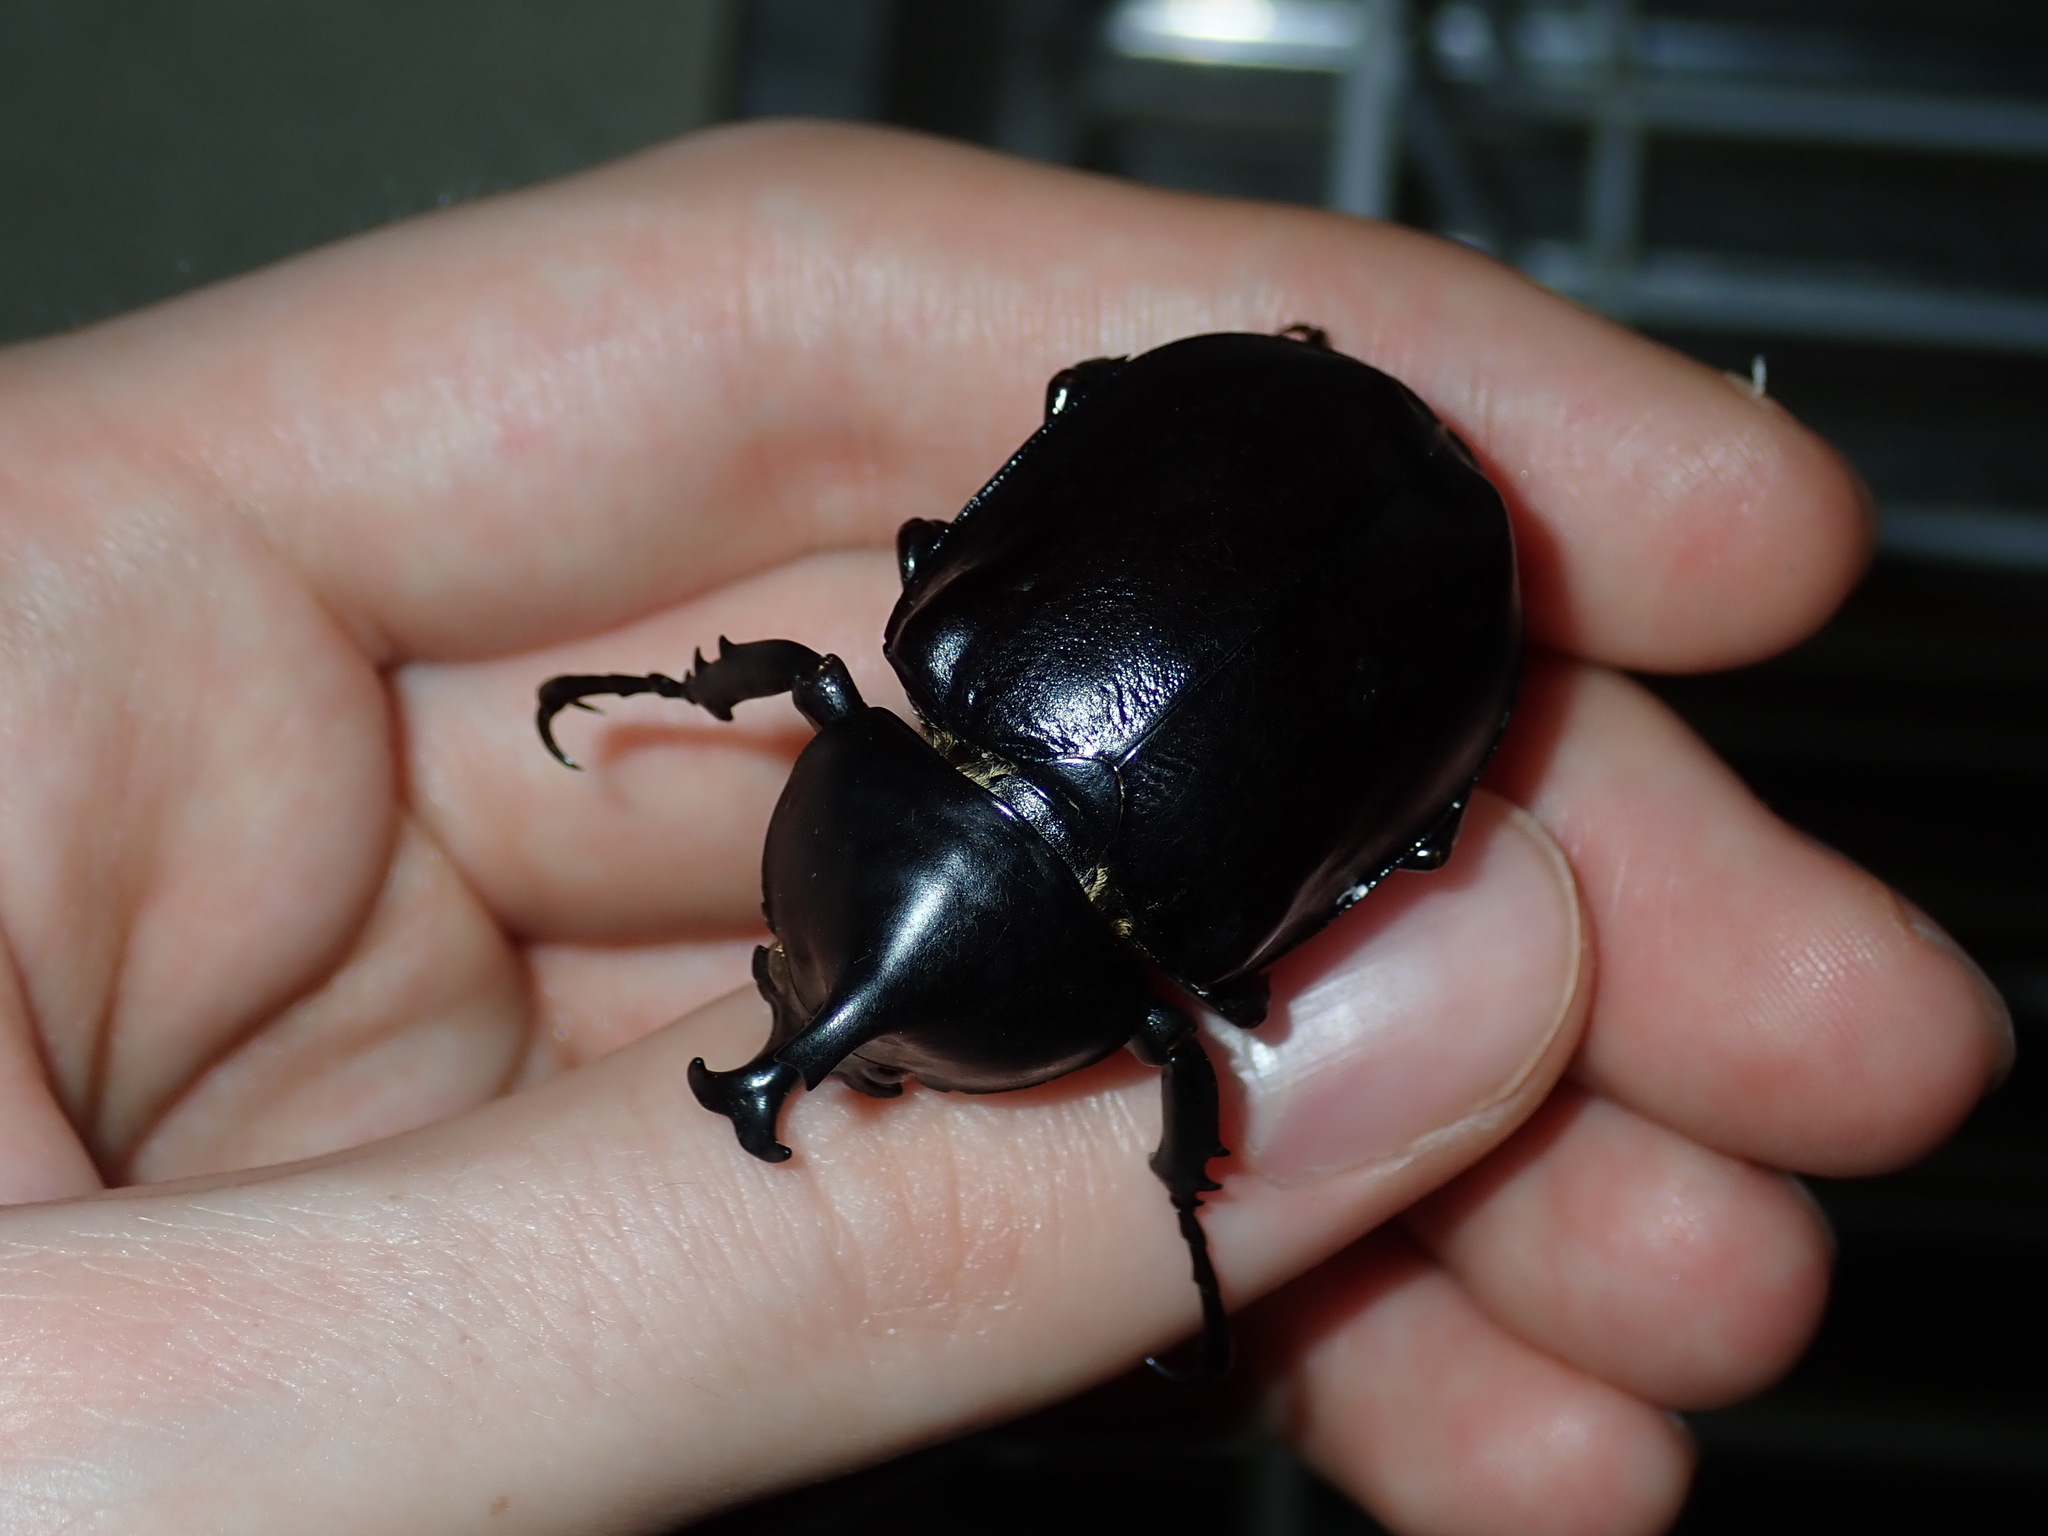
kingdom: Animalia
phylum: Arthropoda
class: Insecta
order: Coleoptera
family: Scarabaeidae
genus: Xylotrupes
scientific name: Xylotrupes australicus
